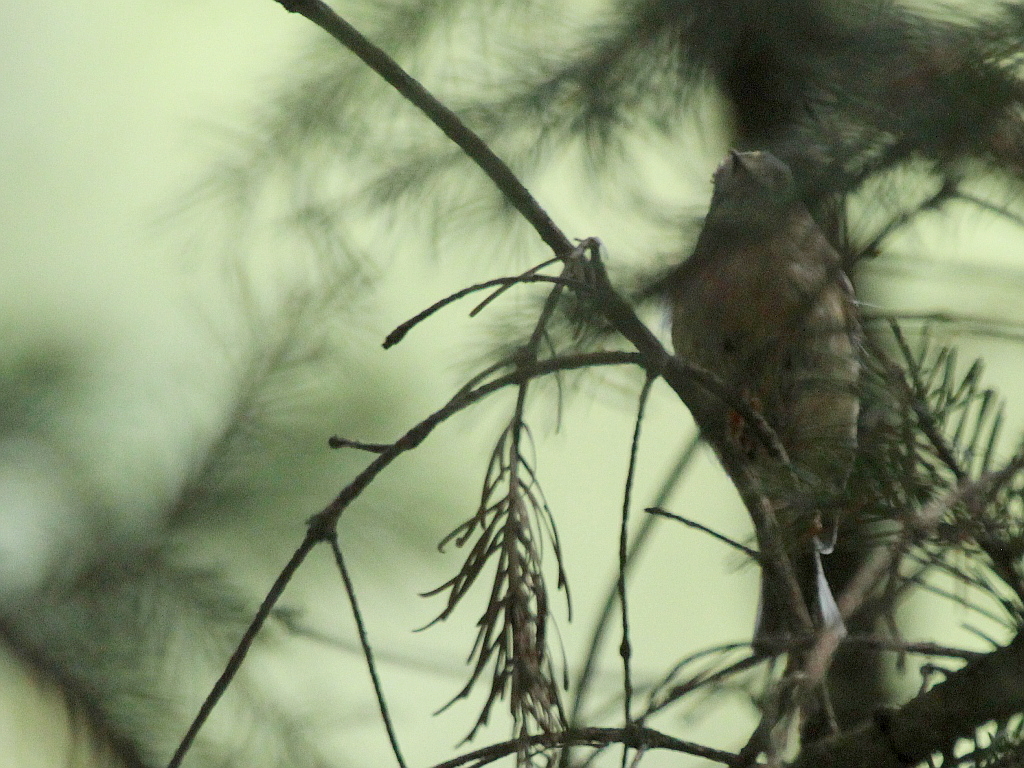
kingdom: Animalia
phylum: Chordata
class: Aves
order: Passeriformes
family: Regulidae
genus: Regulus
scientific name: Regulus regulus
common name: Goldcrest
